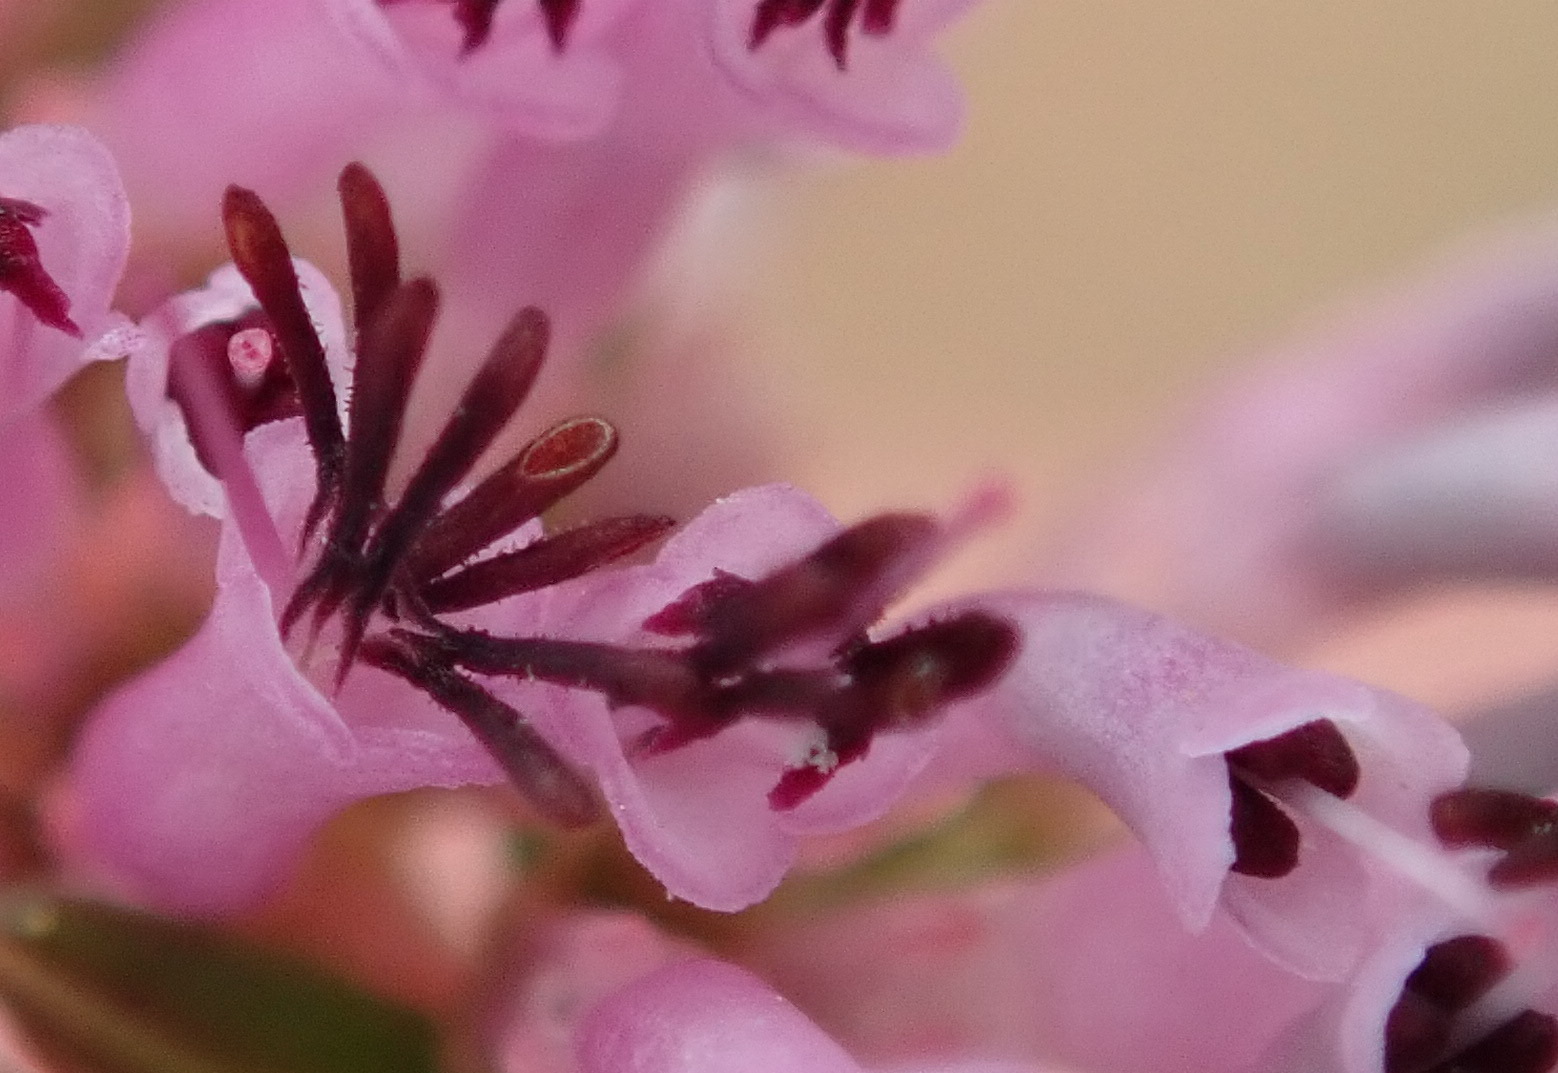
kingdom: Plantae
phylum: Tracheophyta
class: Magnoliopsida
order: Ericales
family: Ericaceae
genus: Erica
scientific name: Erica uberiflora
